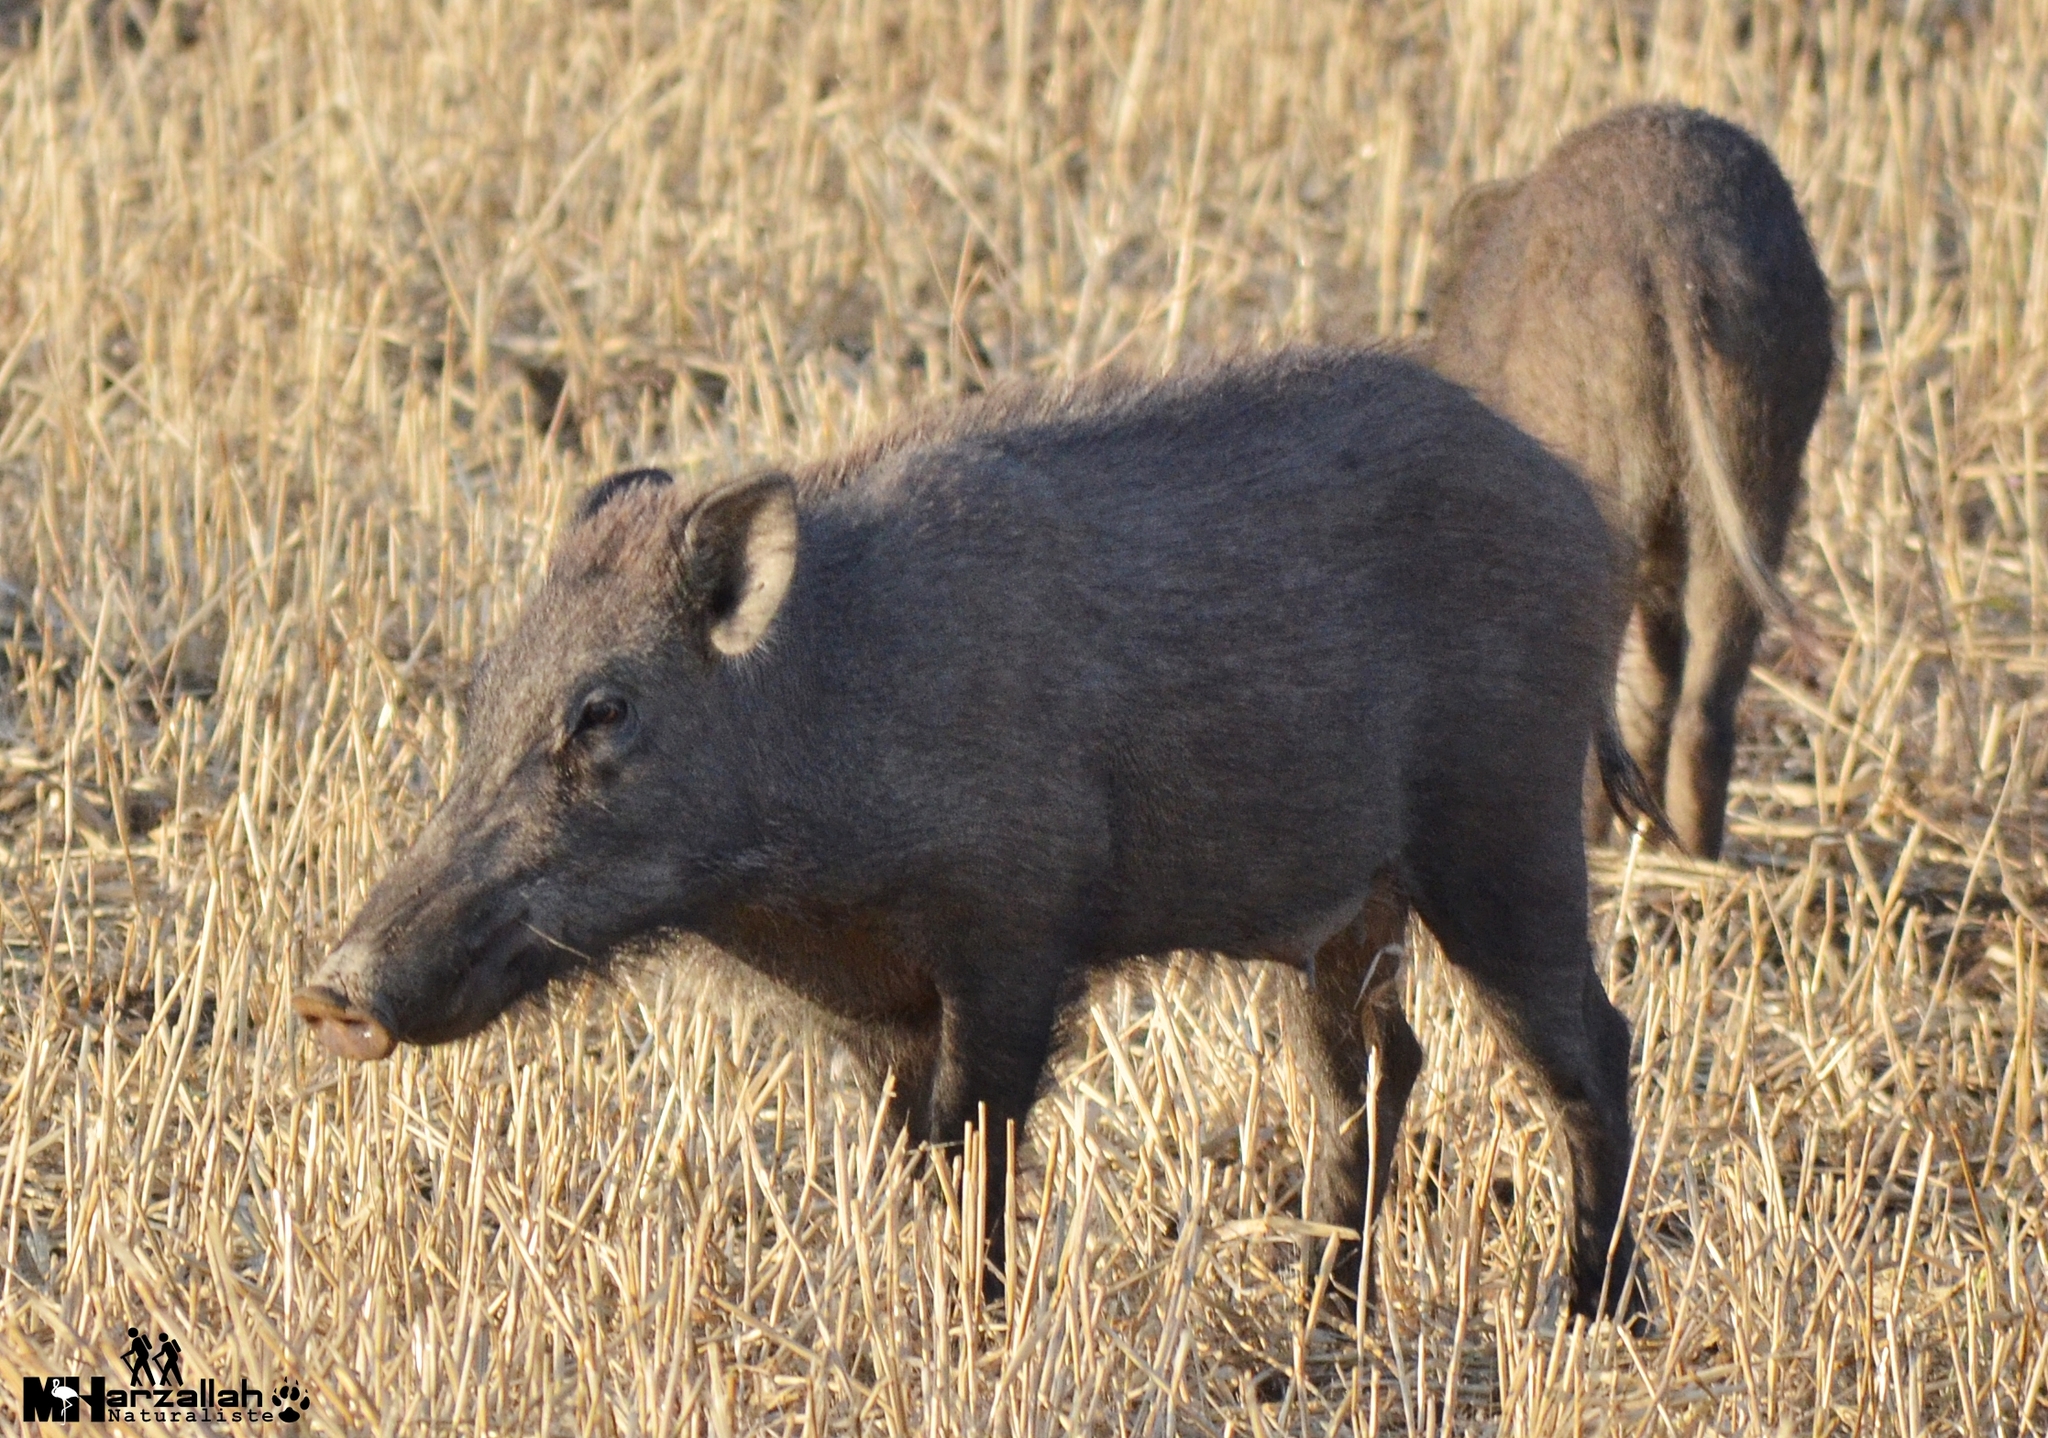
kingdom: Animalia
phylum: Chordata
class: Mammalia
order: Artiodactyla
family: Suidae
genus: Sus
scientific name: Sus scrofa
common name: Wild boar
